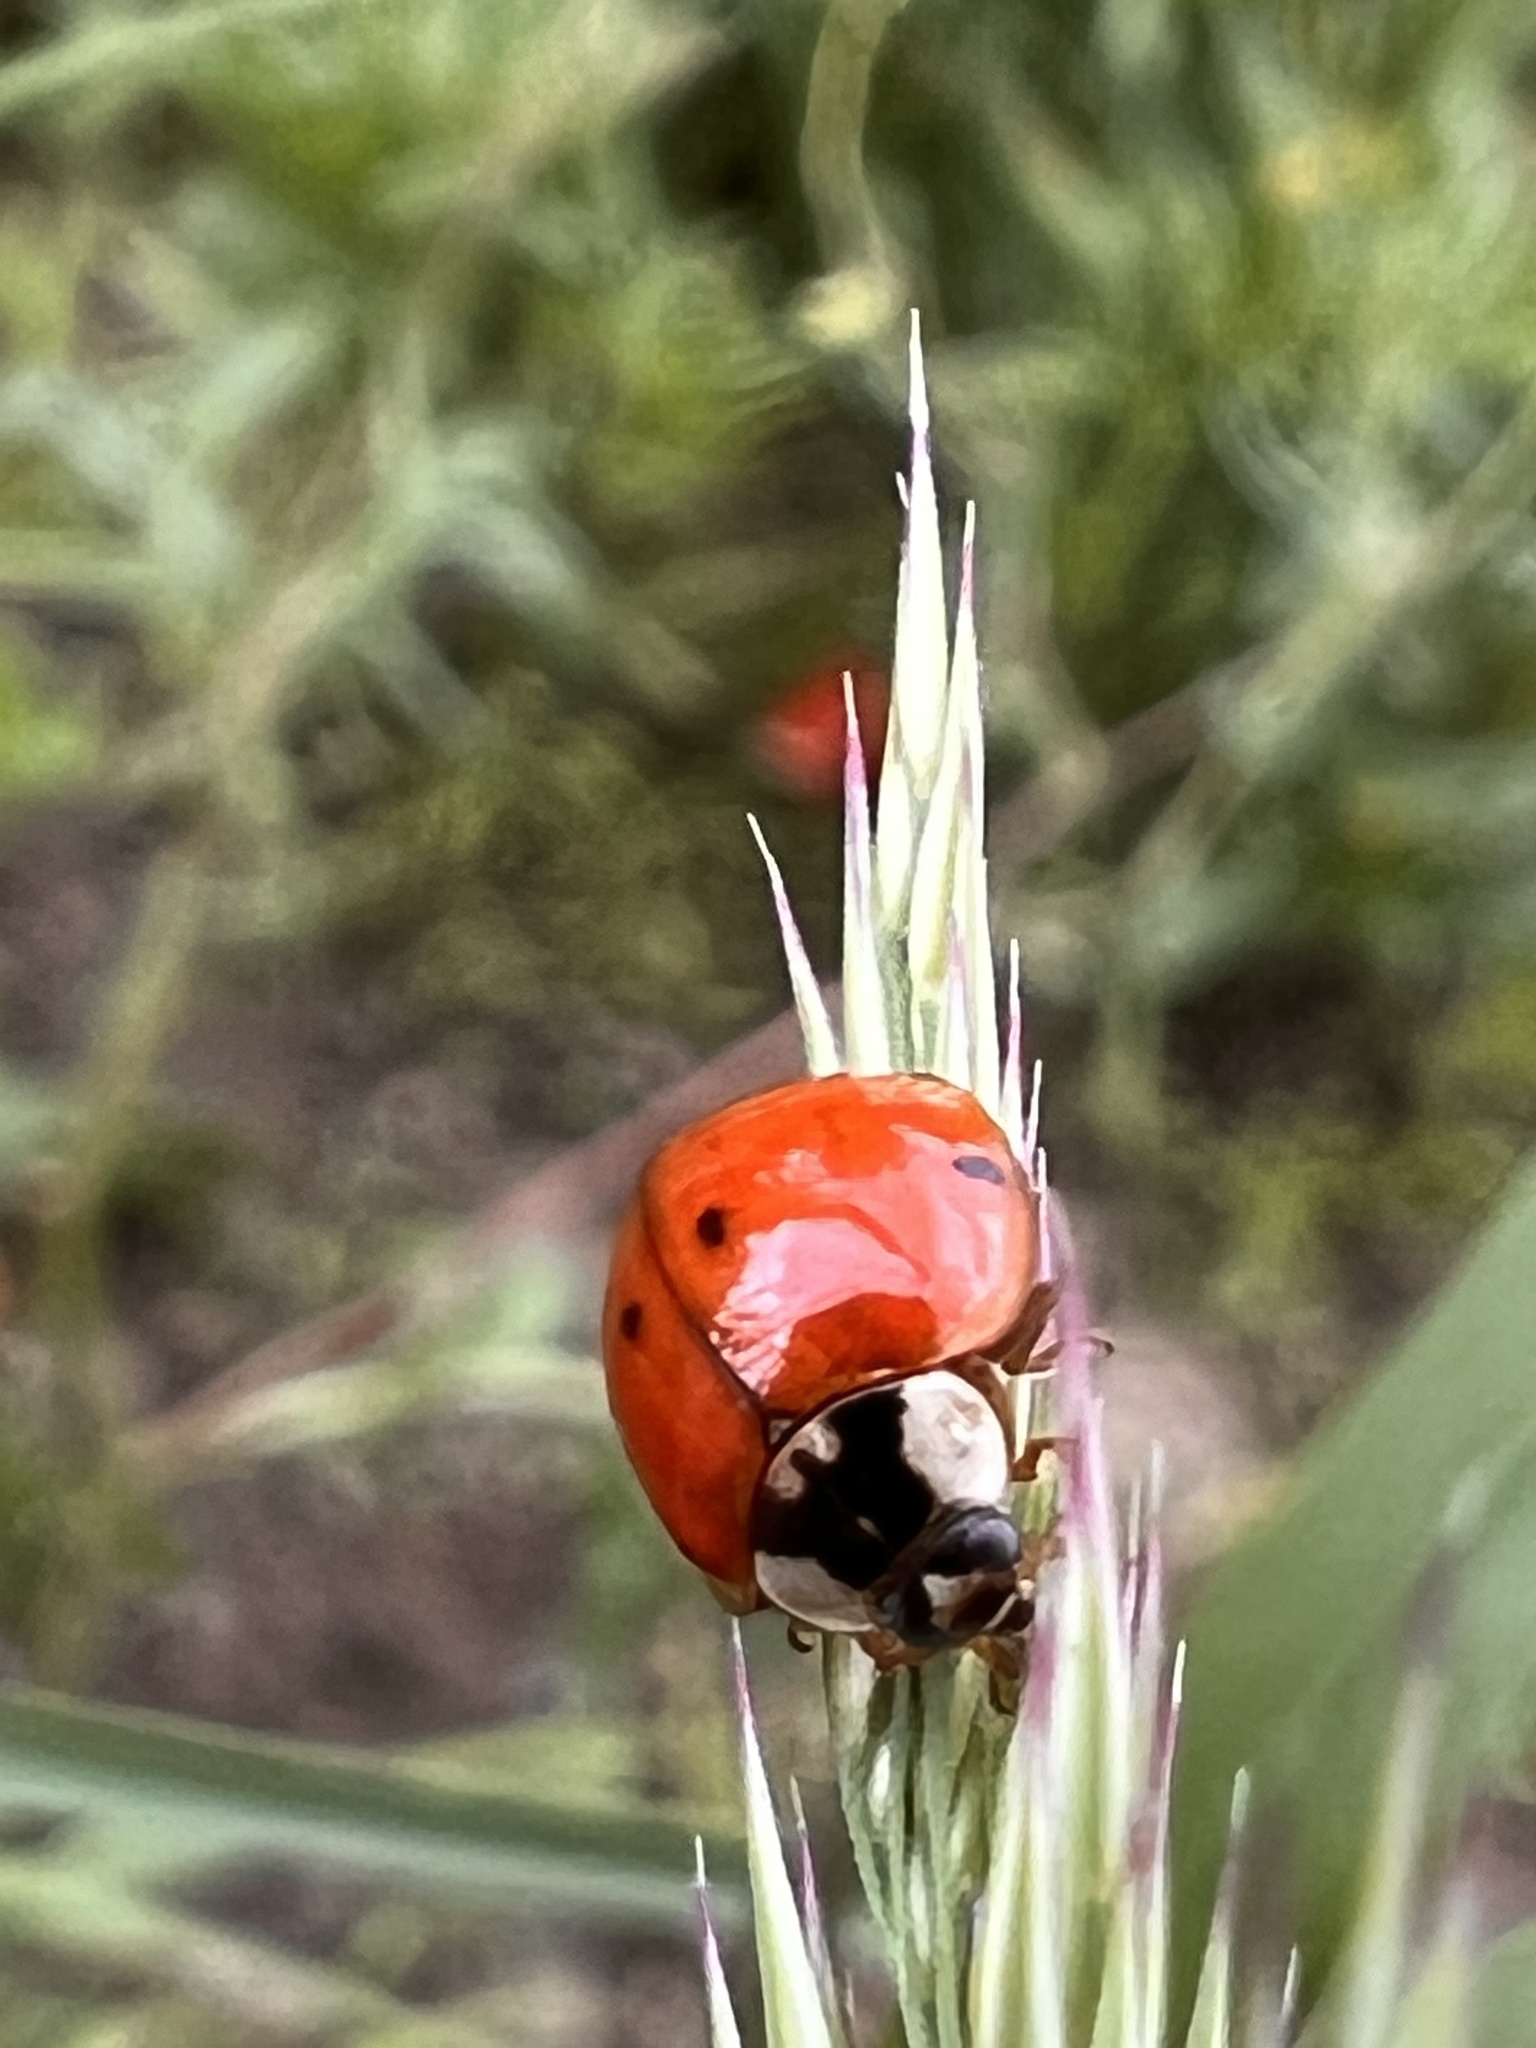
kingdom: Animalia
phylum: Arthropoda
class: Insecta
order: Coleoptera
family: Coccinellidae
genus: Harmonia
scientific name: Harmonia axyridis
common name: Harlequin ladybird
